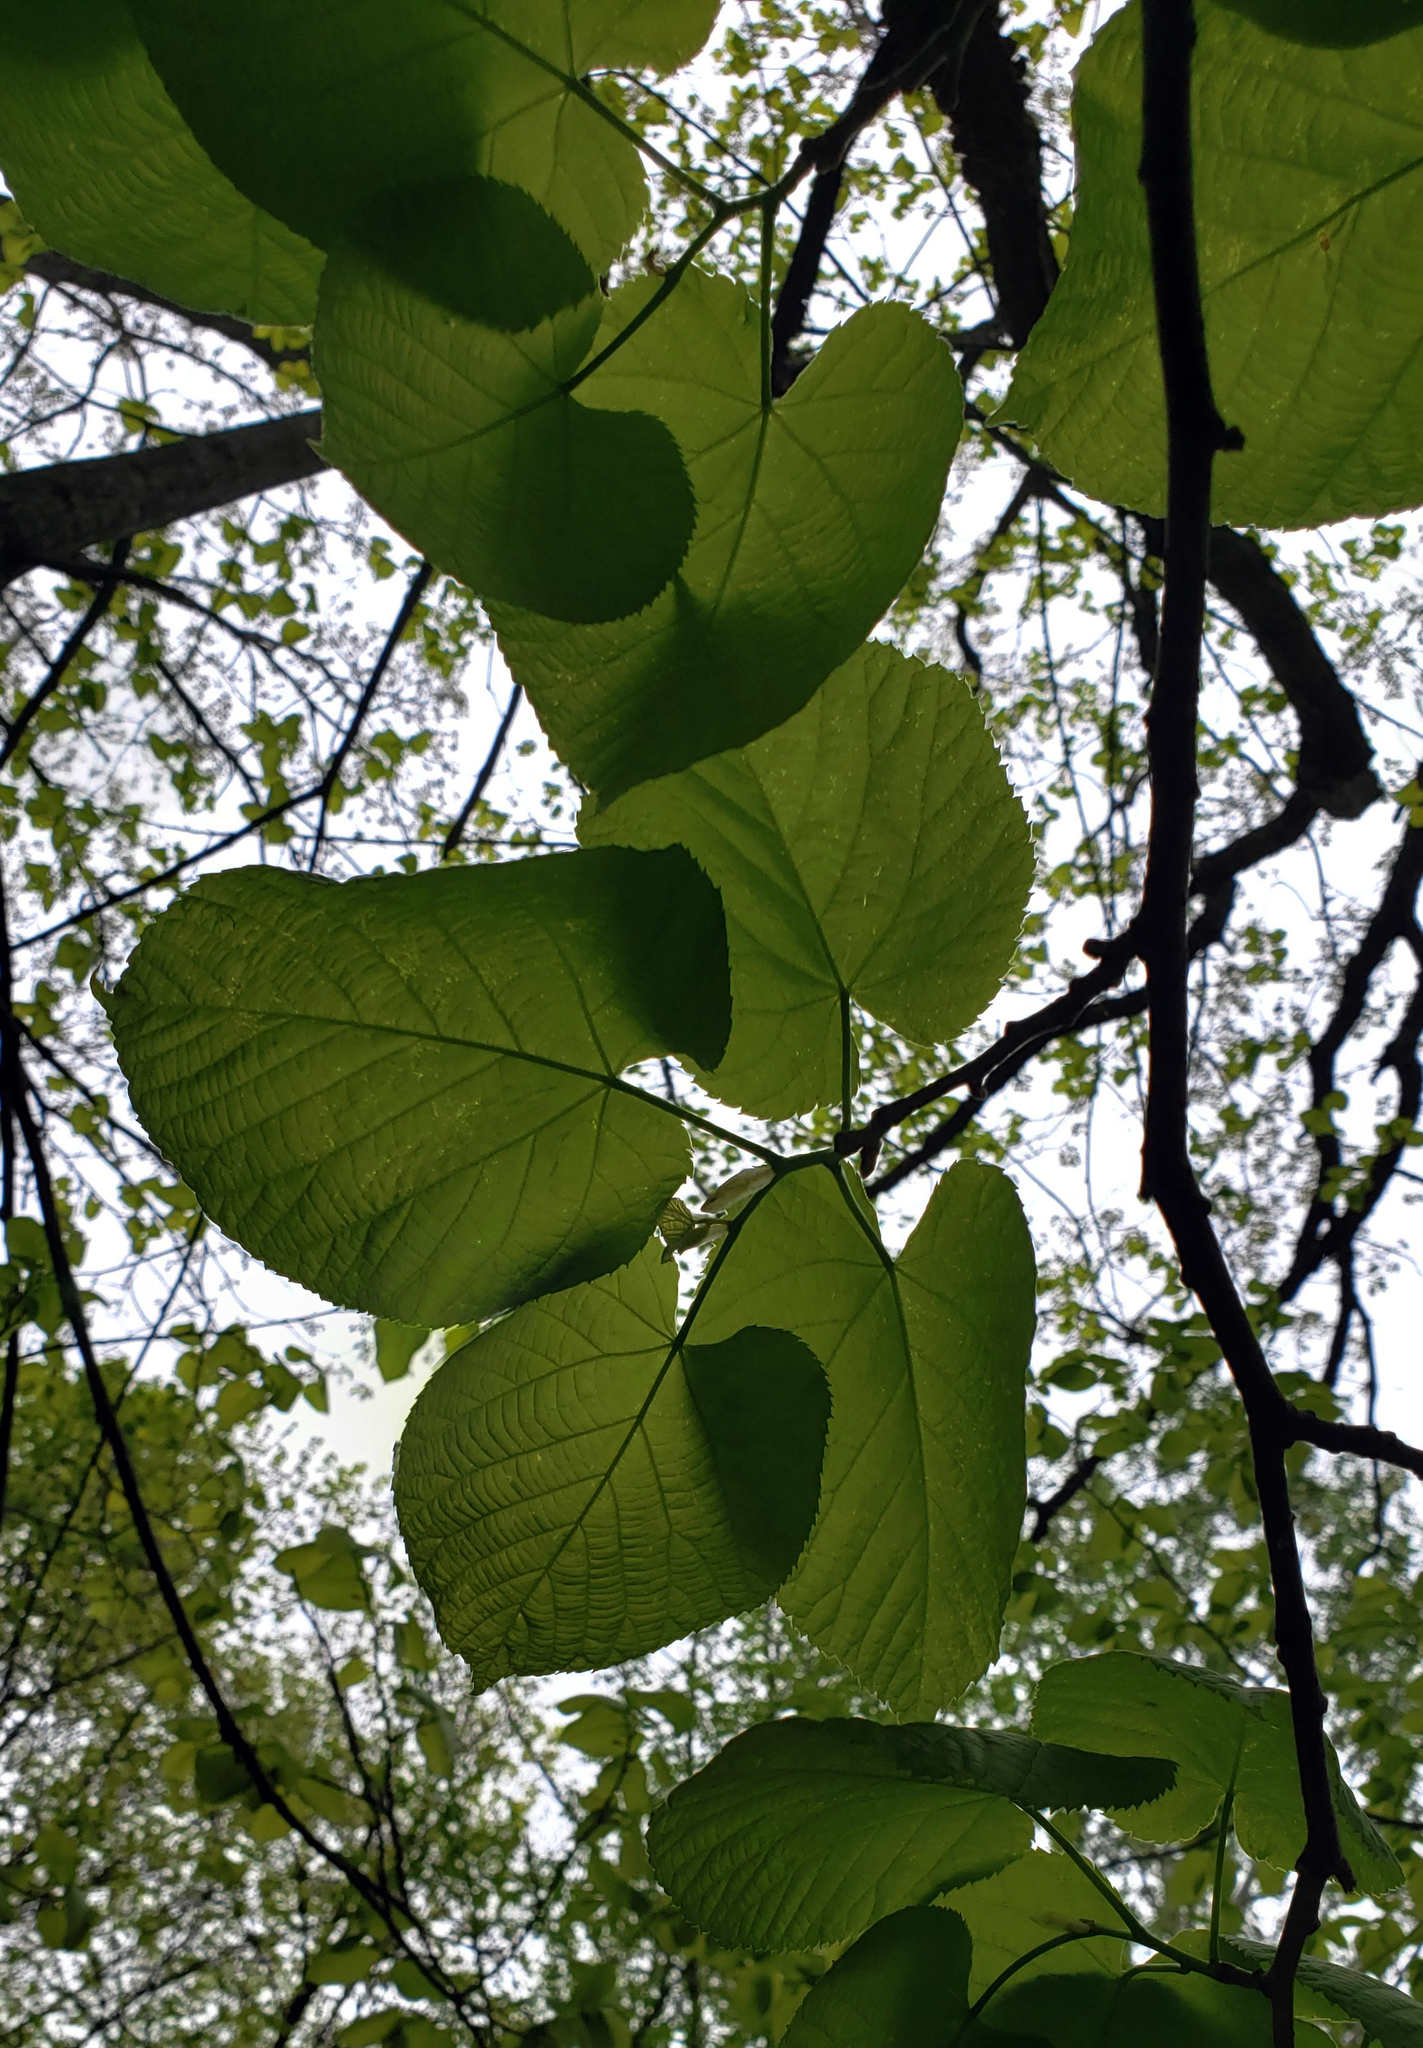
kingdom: Plantae
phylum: Tracheophyta
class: Magnoliopsida
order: Malvales
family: Malvaceae
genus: Tilia
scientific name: Tilia americana
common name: Basswood
